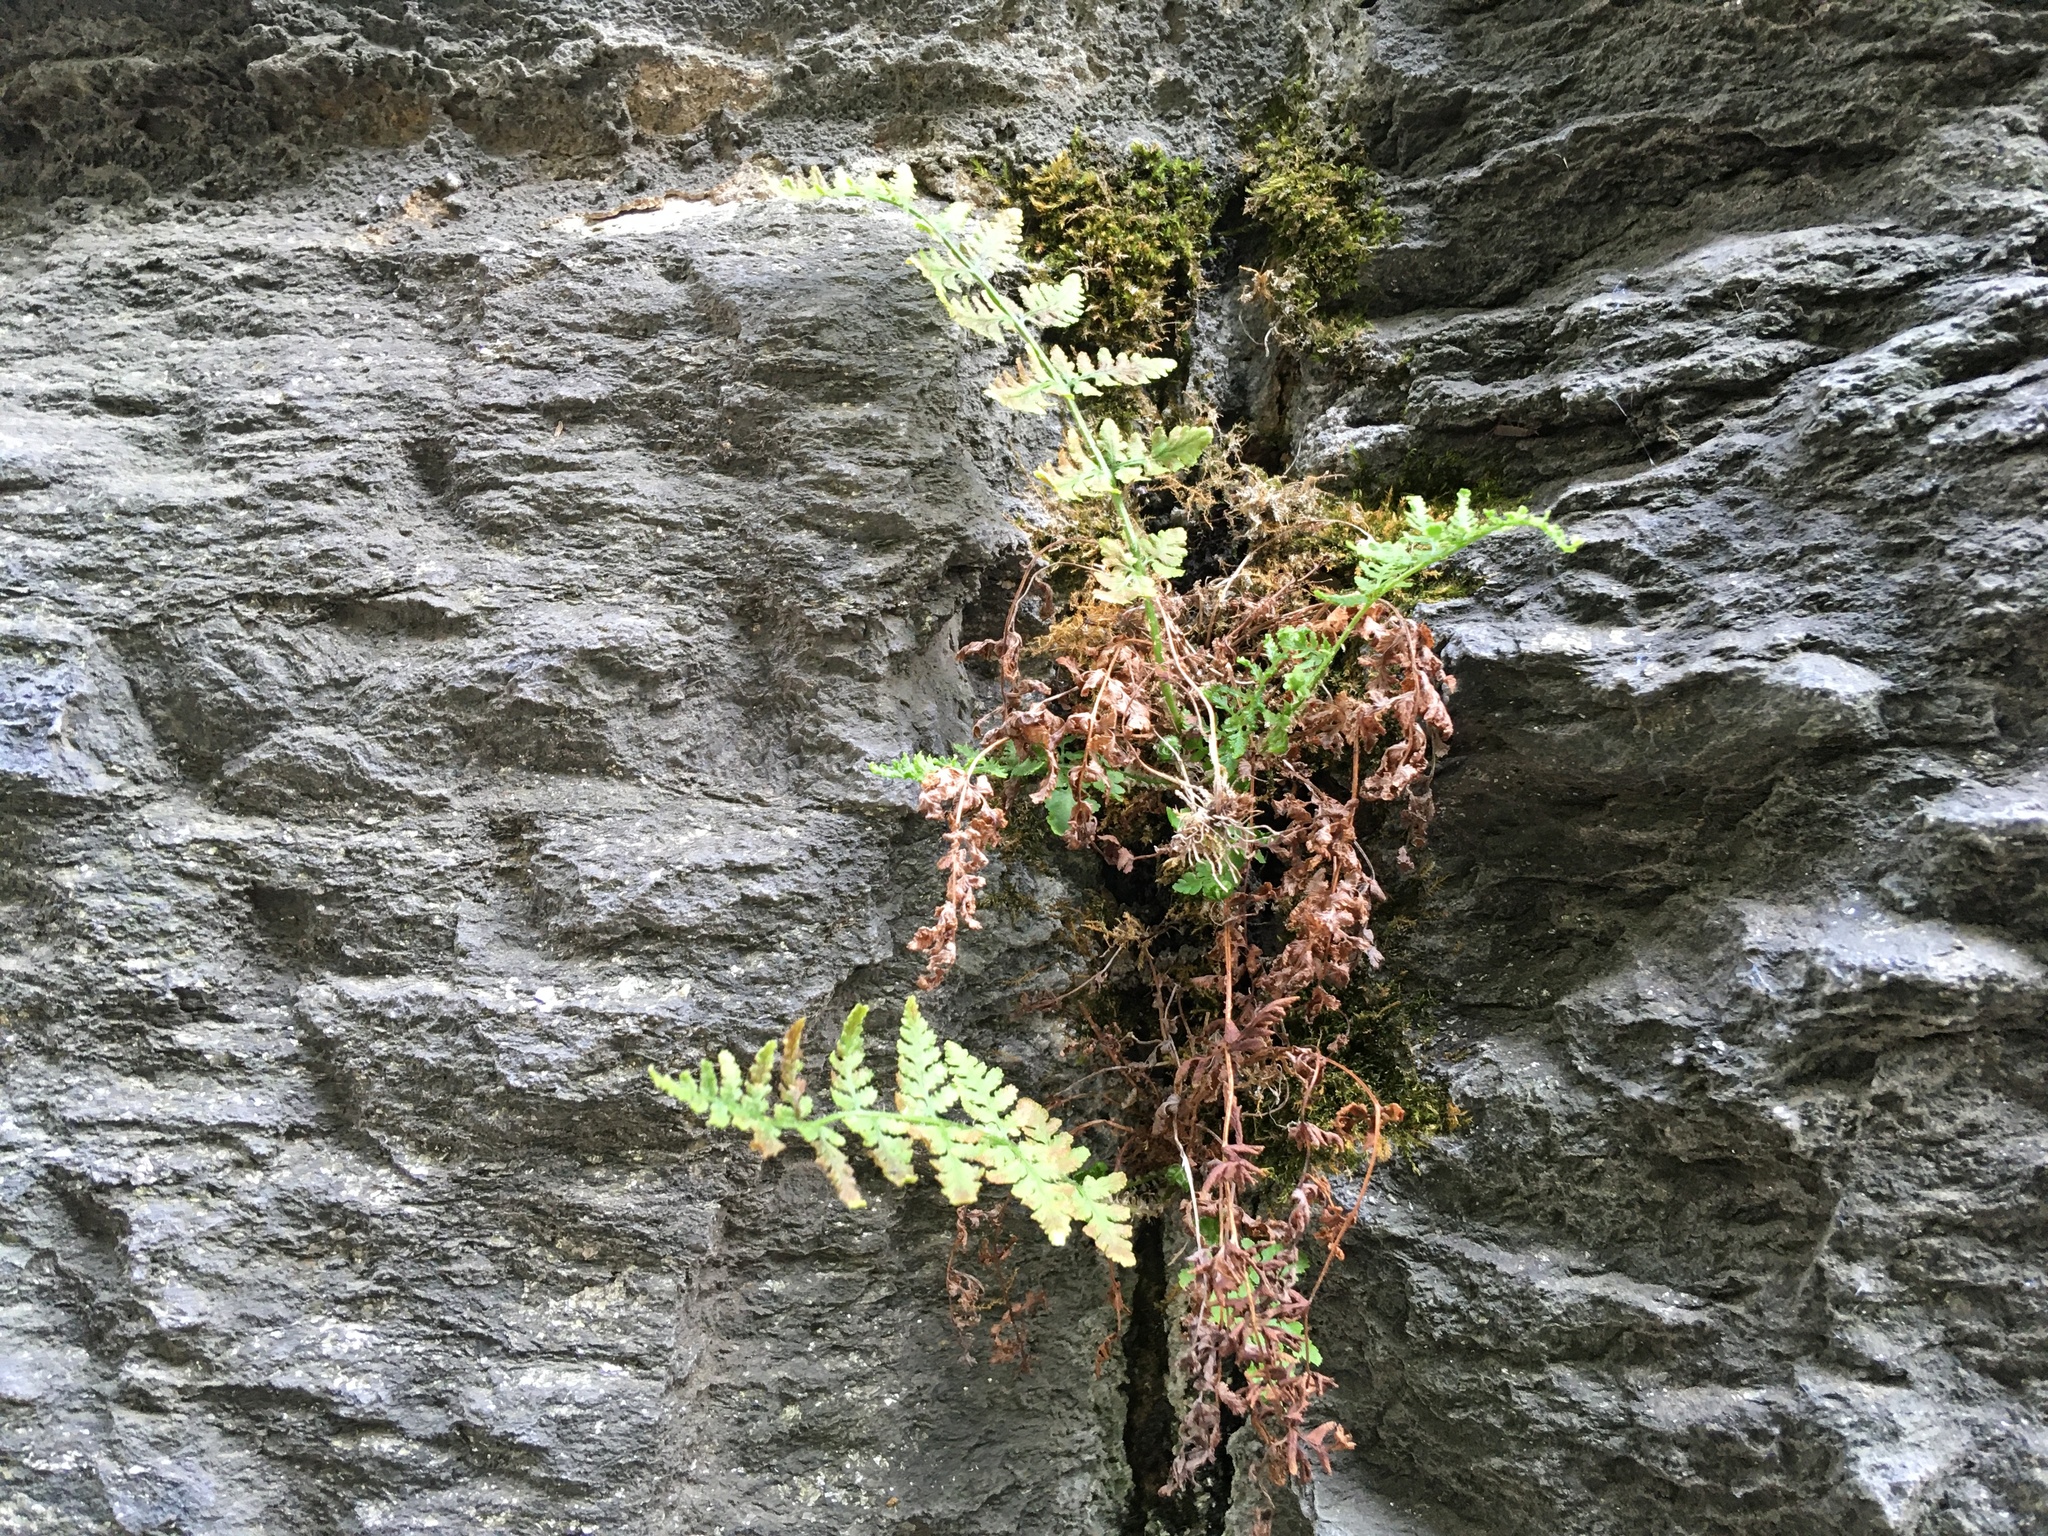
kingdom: Plantae
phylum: Tracheophyta
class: Polypodiopsida
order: Polypodiales
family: Woodsiaceae
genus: Physematium
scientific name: Physematium obtusum
